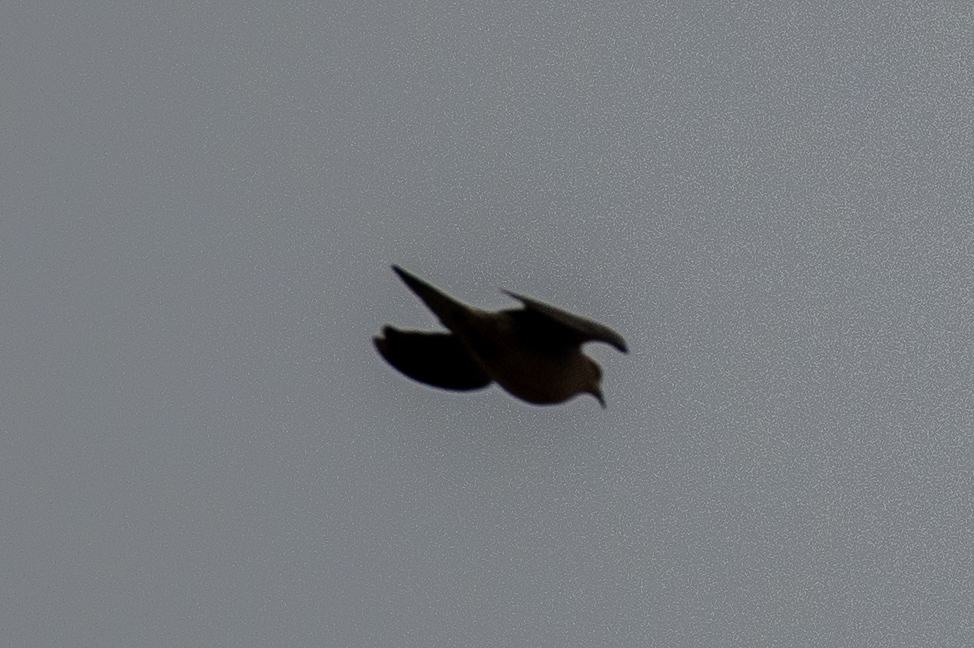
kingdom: Animalia
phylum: Chordata
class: Aves
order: Columbiformes
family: Columbidae
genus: Zenaida
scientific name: Zenaida macroura
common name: Mourning dove
